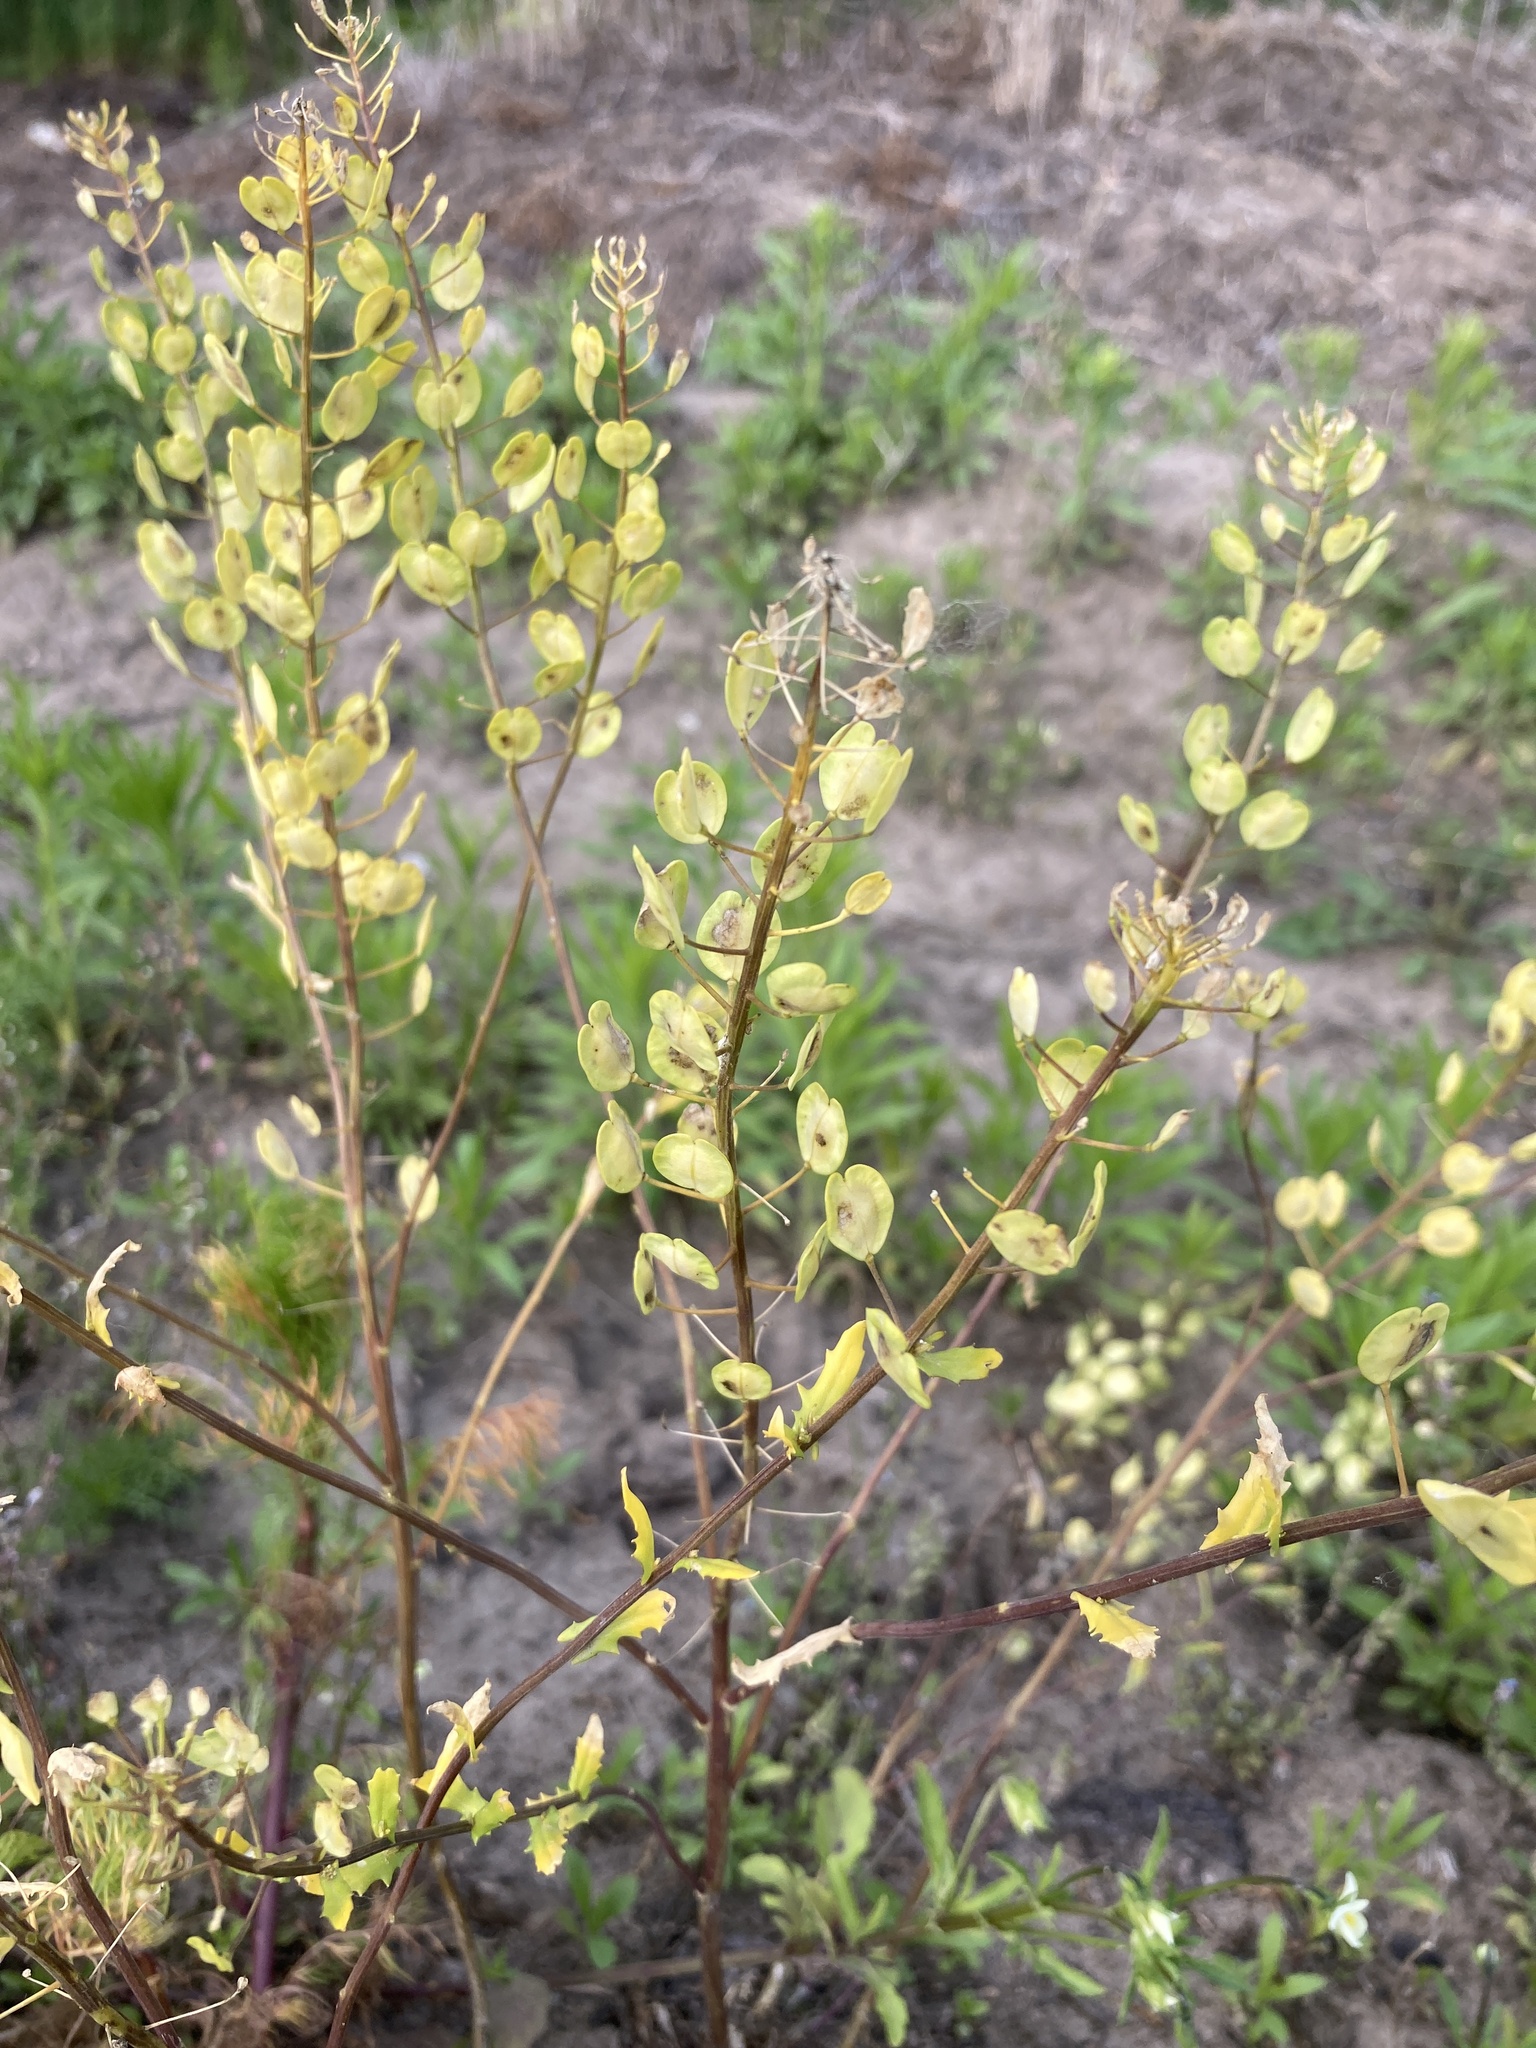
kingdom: Plantae
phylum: Tracheophyta
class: Magnoliopsida
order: Brassicales
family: Brassicaceae
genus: Thlaspi
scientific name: Thlaspi arvense
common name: Field pennycress
